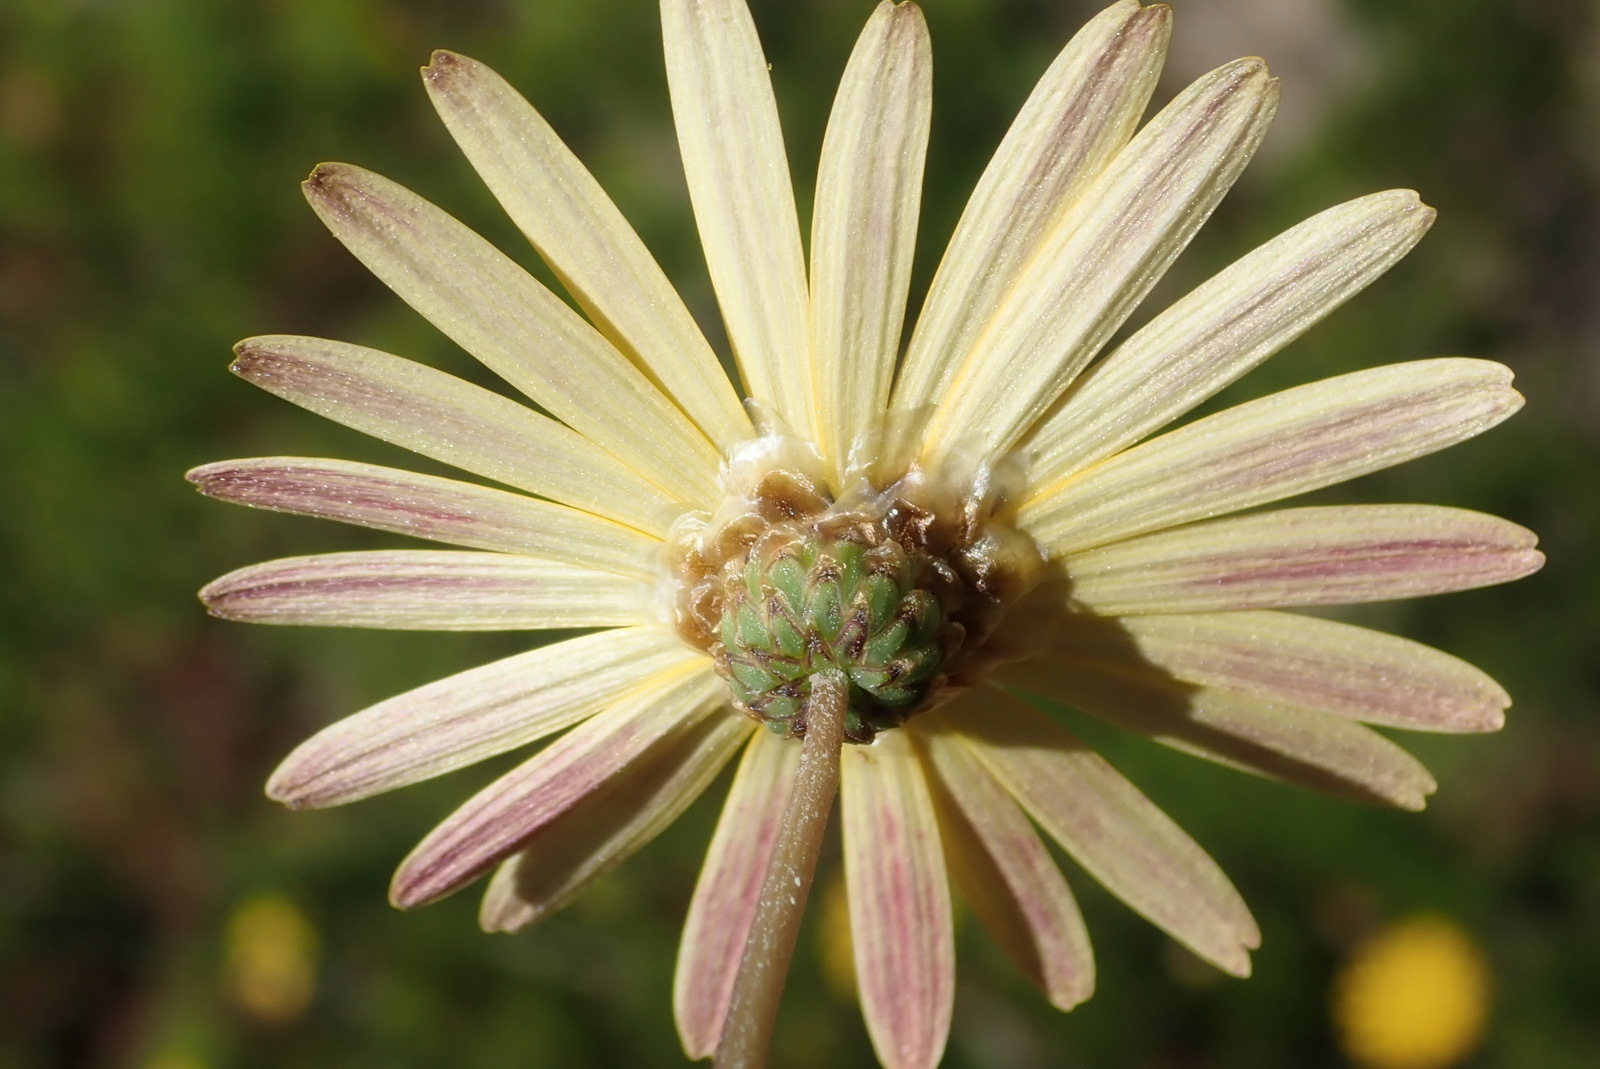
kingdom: Plantae
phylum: Tracheophyta
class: Magnoliopsida
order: Asterales
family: Asteraceae
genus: Ursinia
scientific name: Ursinia chrysanthemoides
